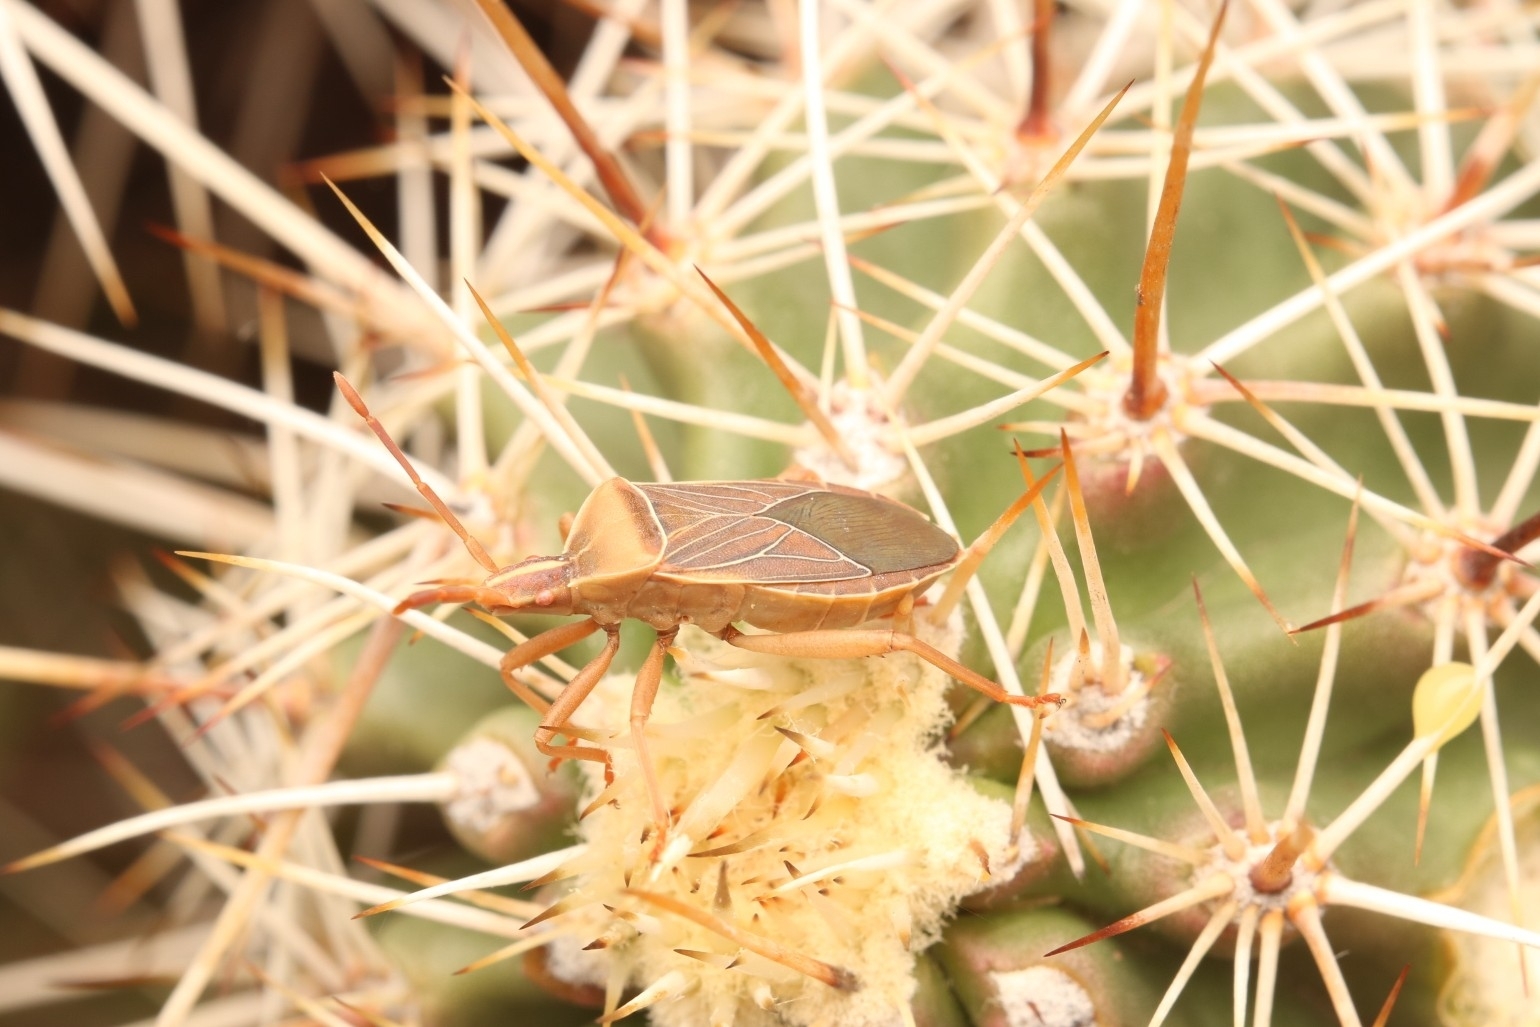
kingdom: Animalia
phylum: Arthropoda
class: Insecta
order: Hemiptera
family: Coreidae
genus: Chelinidea
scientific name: Chelinidea vittiger
